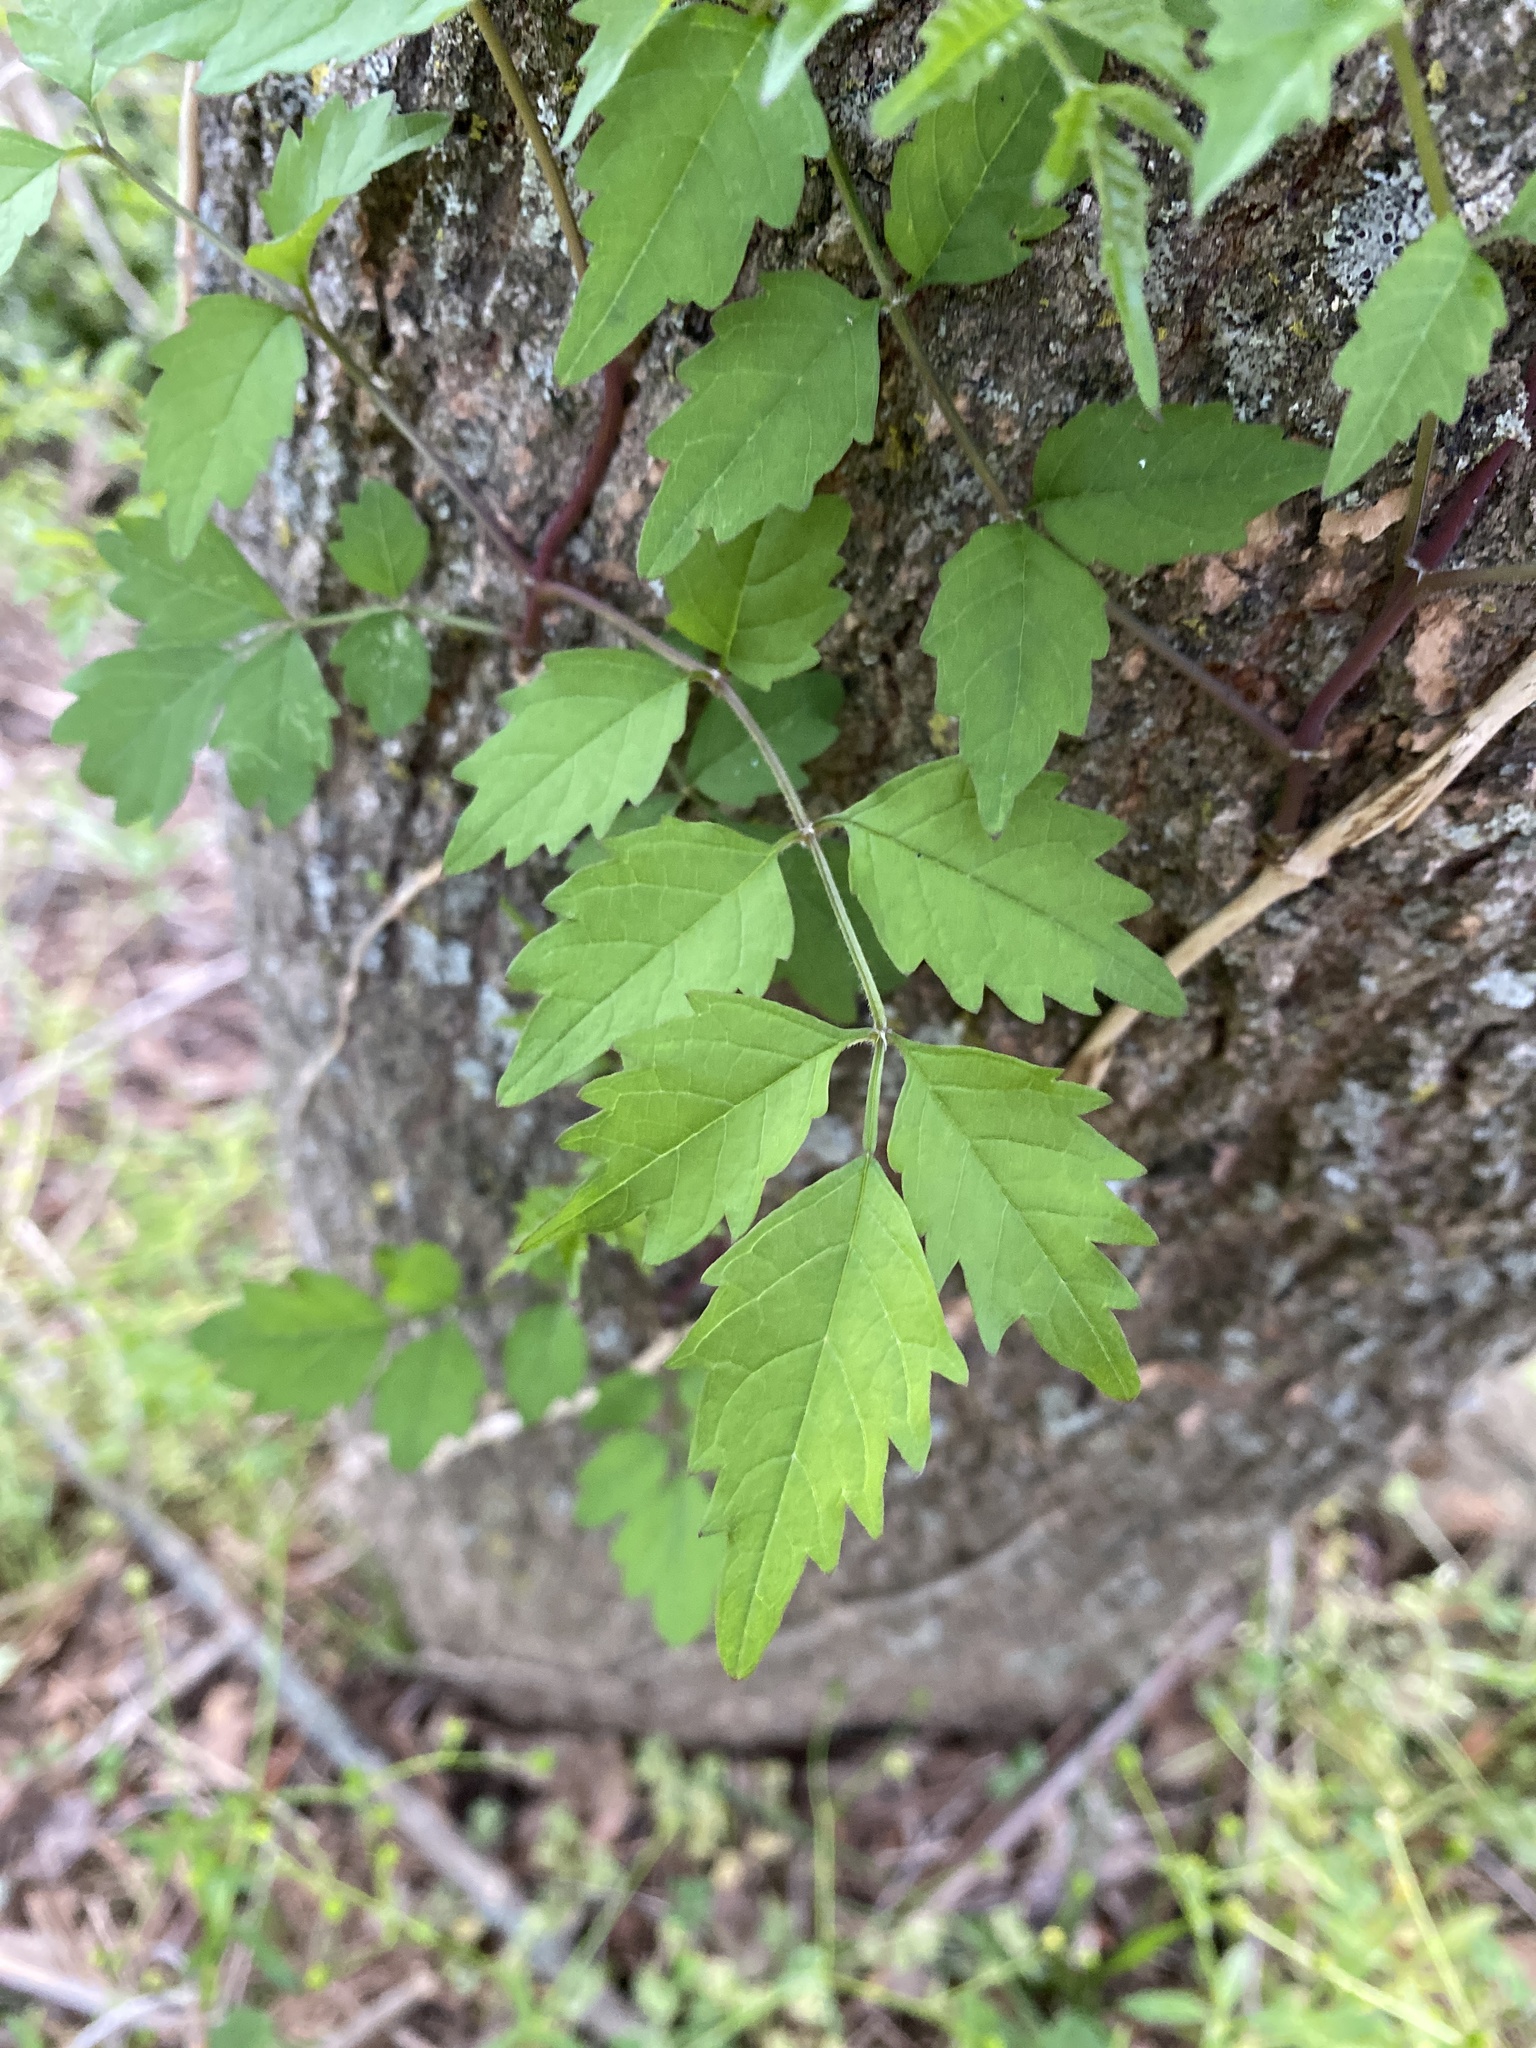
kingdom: Plantae
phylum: Tracheophyta
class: Magnoliopsida
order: Lamiales
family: Bignoniaceae
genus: Campsis
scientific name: Campsis radicans
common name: Trumpet-creeper
